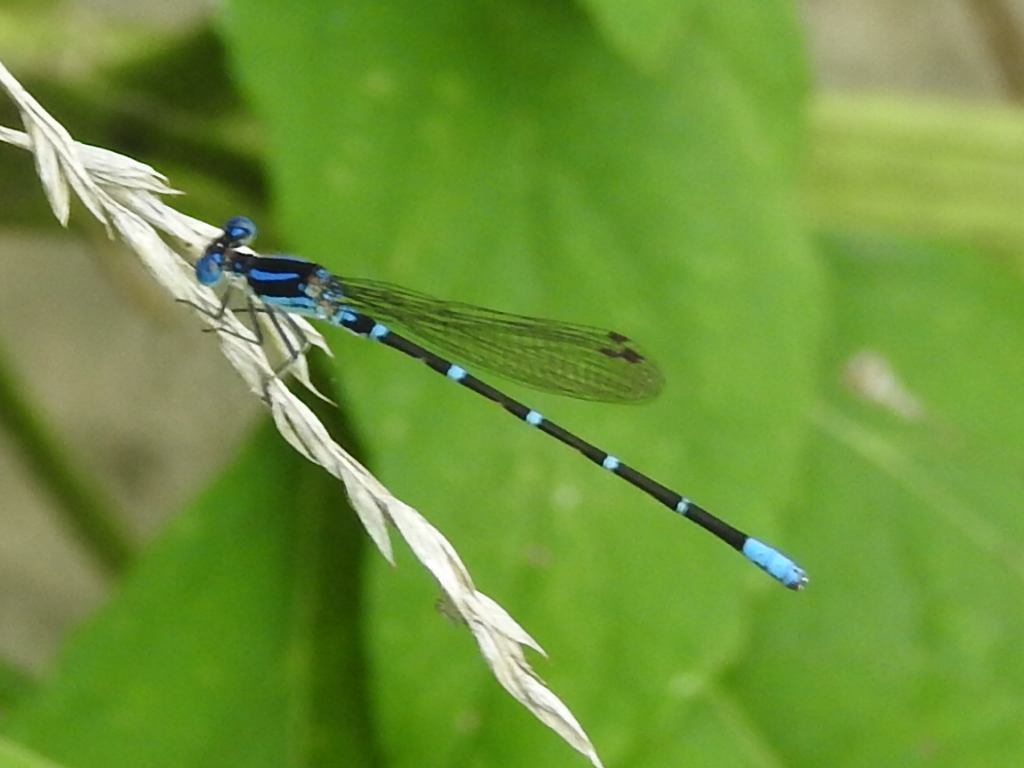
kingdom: Animalia
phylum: Arthropoda
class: Insecta
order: Odonata
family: Coenagrionidae
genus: Argia
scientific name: Argia sedula
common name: Blue-ringed dancer
